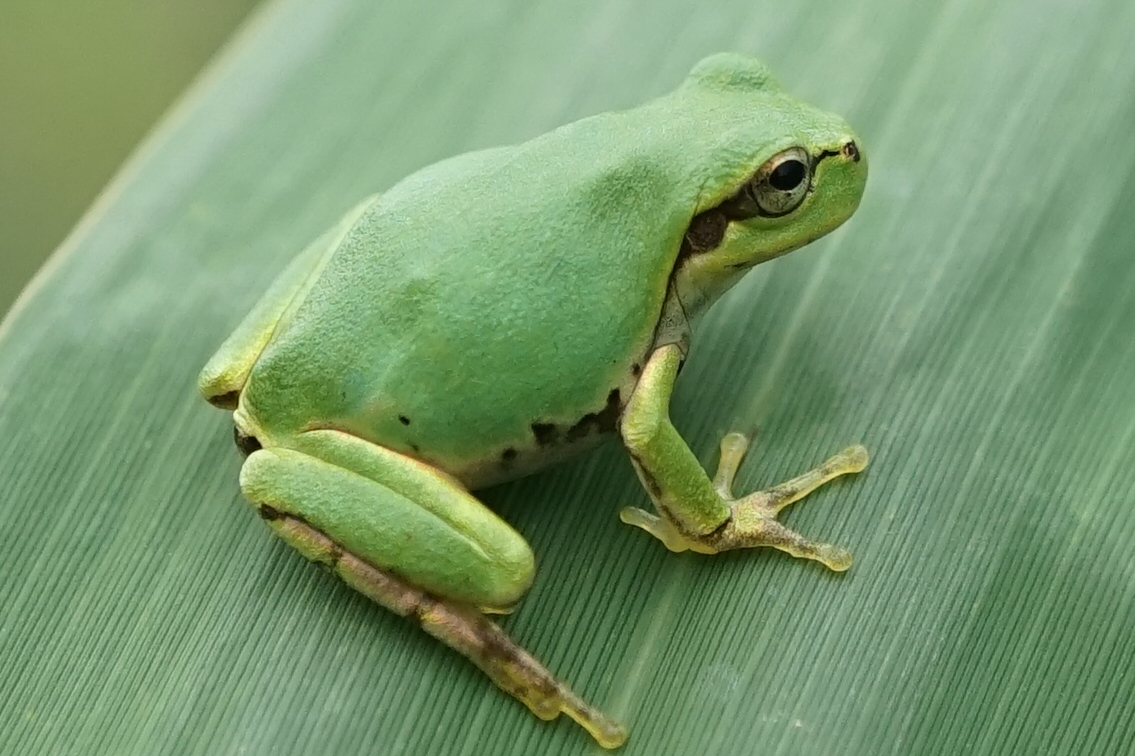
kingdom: Animalia
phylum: Chordata
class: Amphibia
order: Anura
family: Hylidae
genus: Dryophytes
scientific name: Dryophytes japonicus
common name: Japanese treefrog
